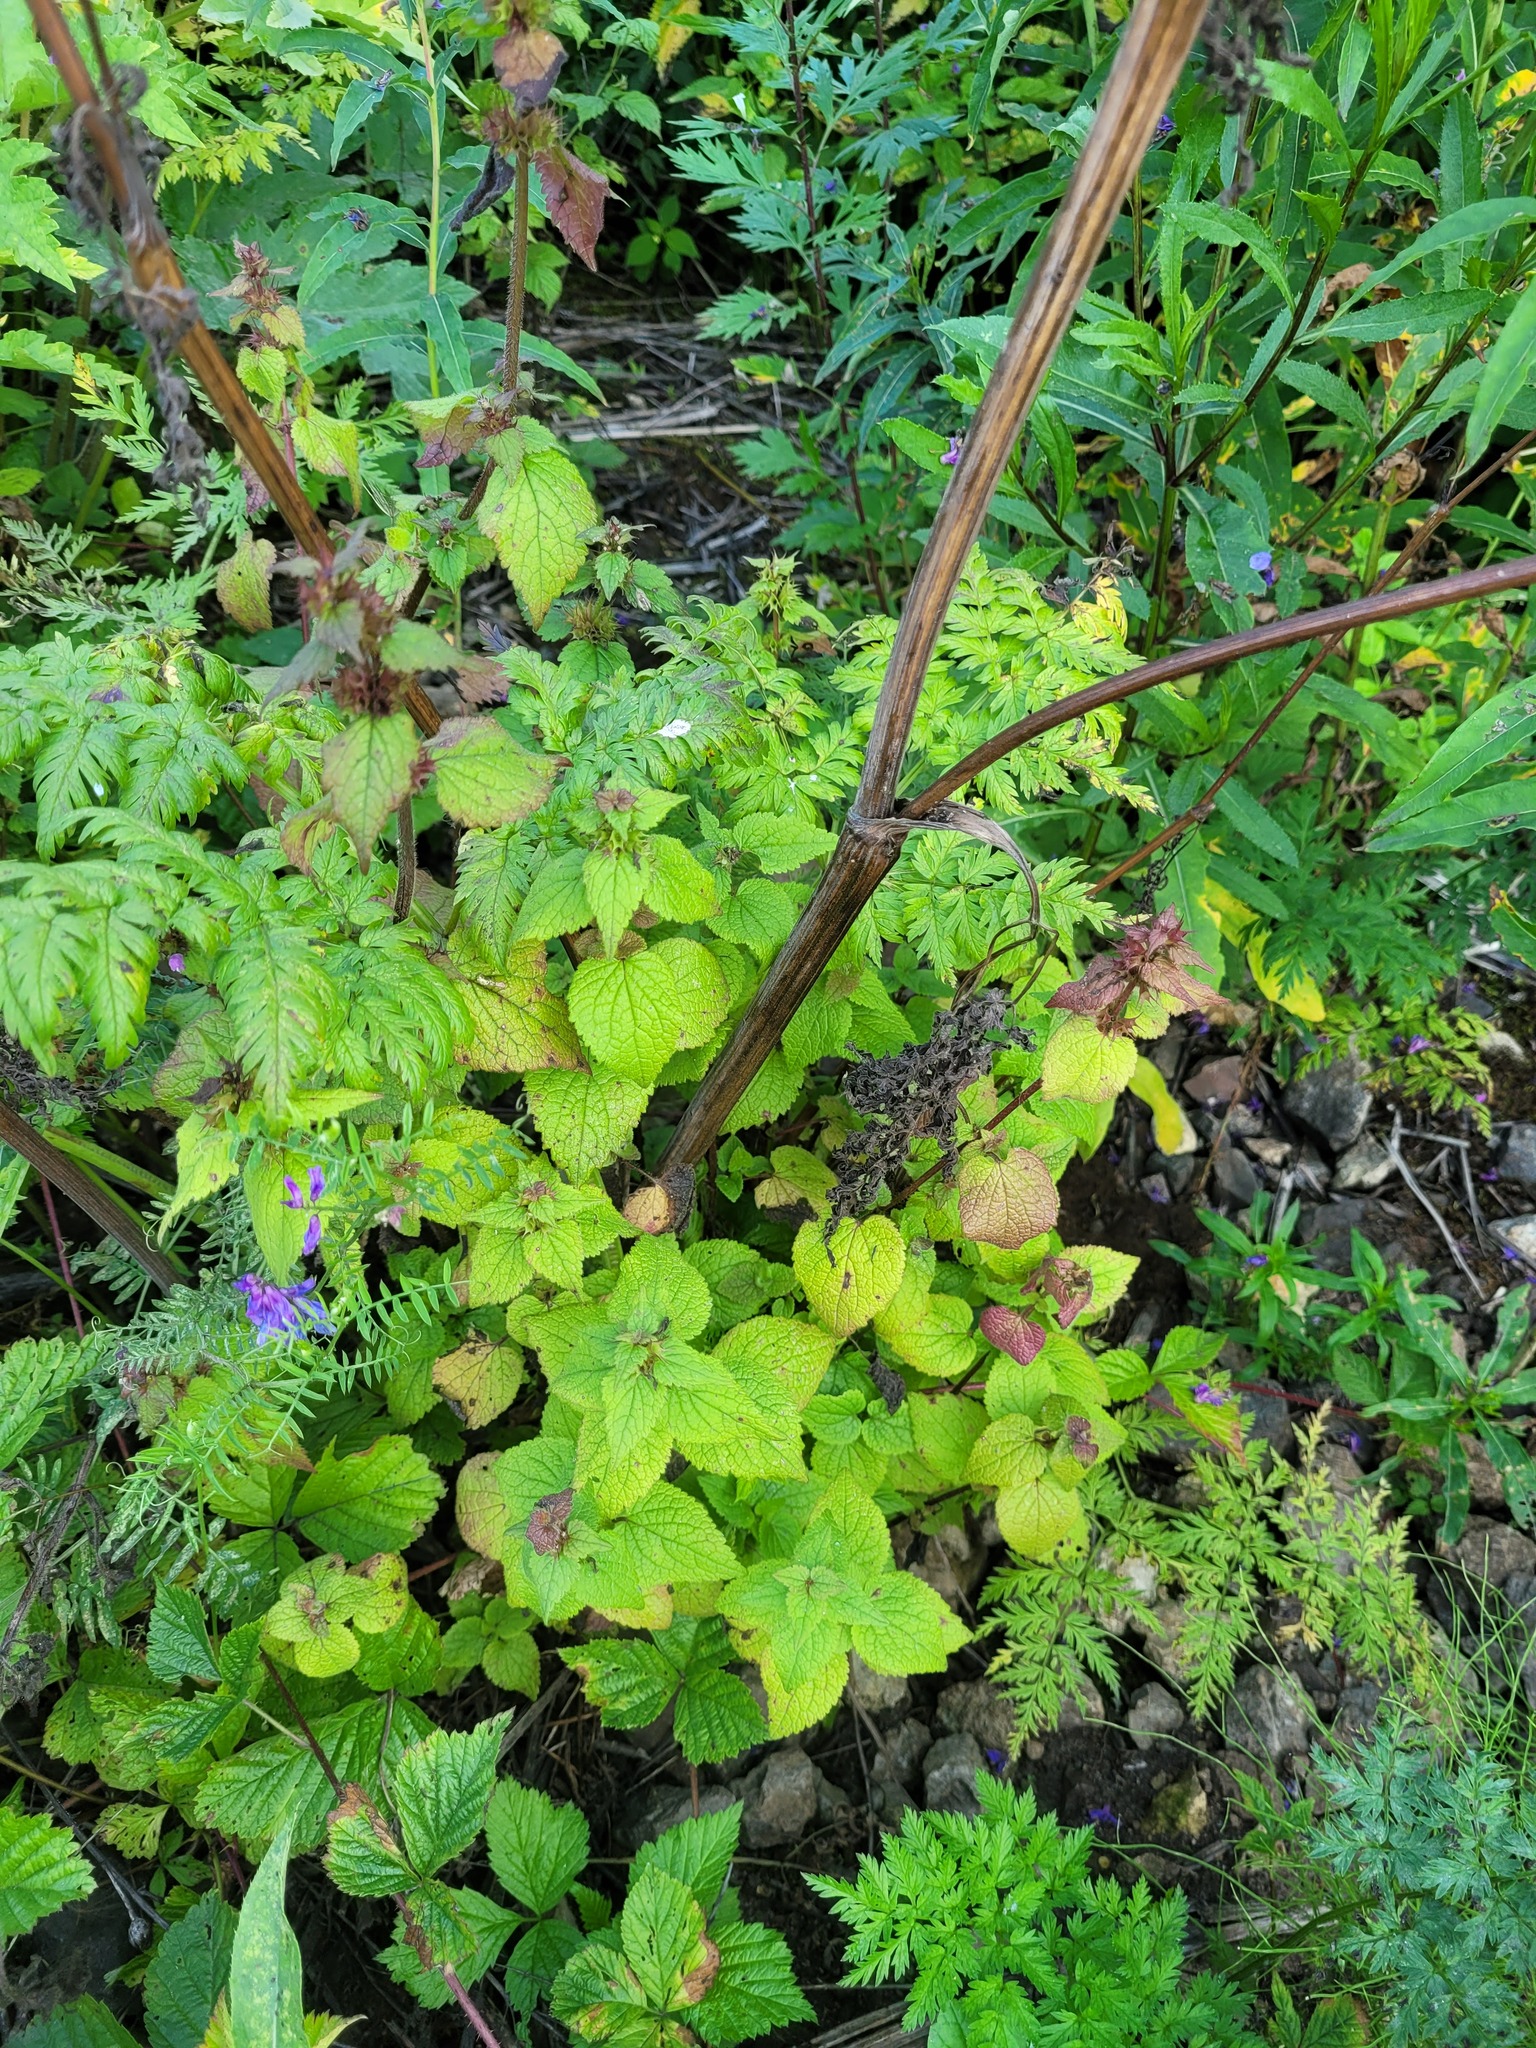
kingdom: Plantae
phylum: Tracheophyta
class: Magnoliopsida
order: Lamiales
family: Lamiaceae
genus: Lamium
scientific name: Lamium maculatum
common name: Spotted dead-nettle
